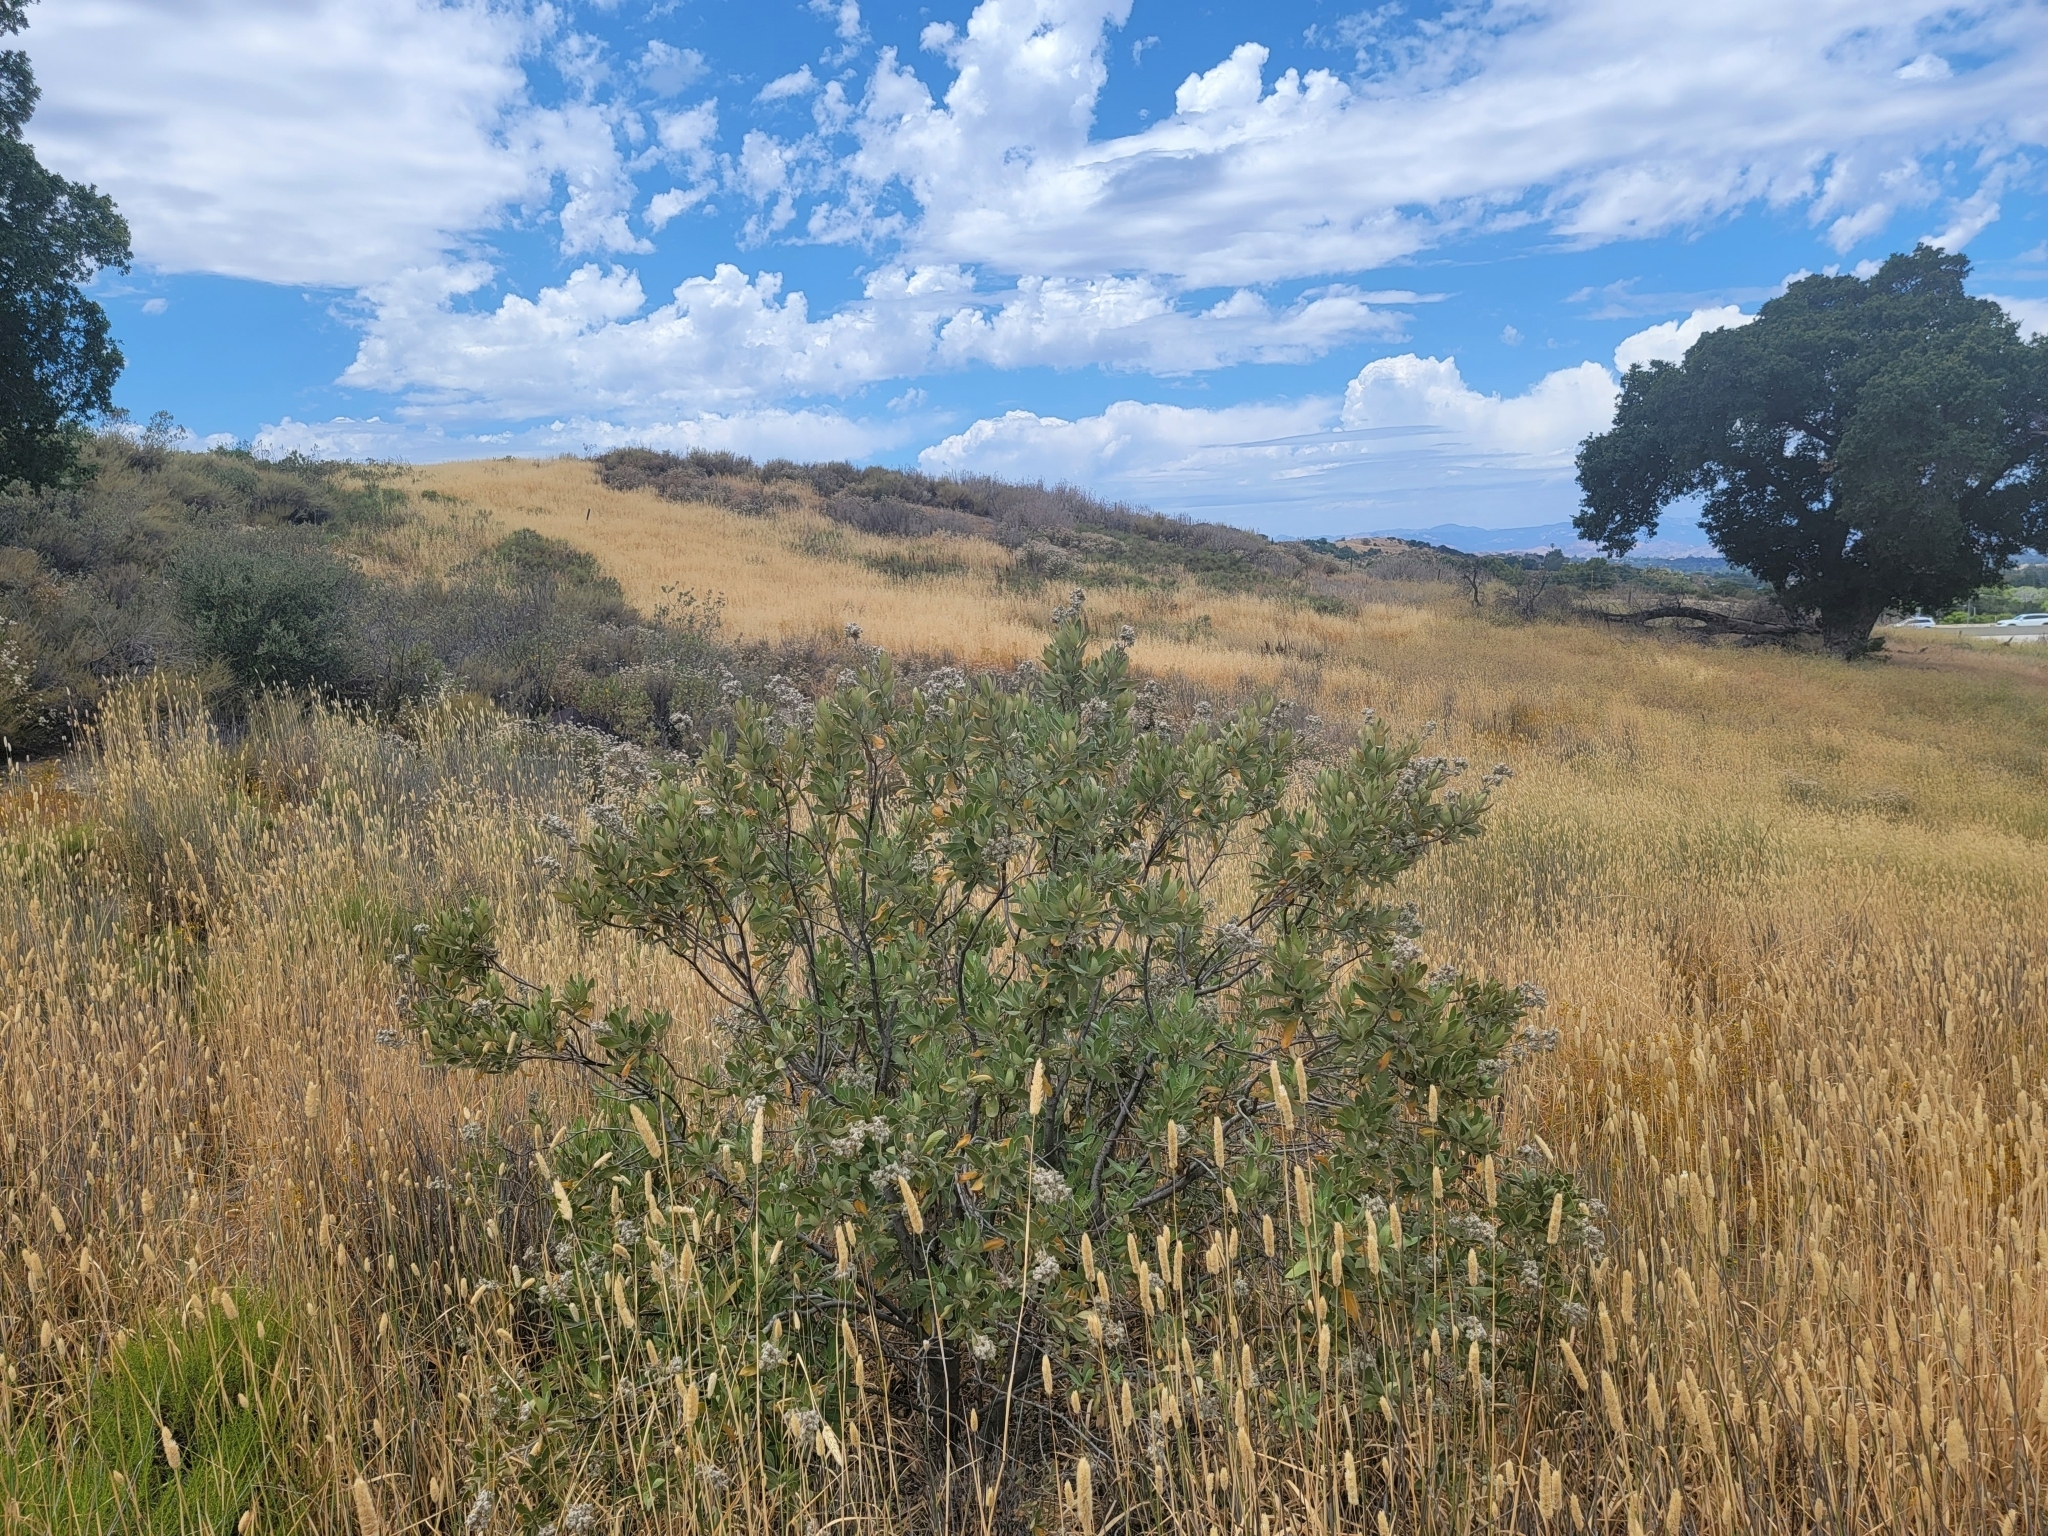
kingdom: Plantae
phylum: Tracheophyta
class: Magnoliopsida
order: Boraginales
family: Namaceae
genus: Eriodictyon
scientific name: Eriodictyon crassifolium
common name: Thick-leaf yerba-santa
